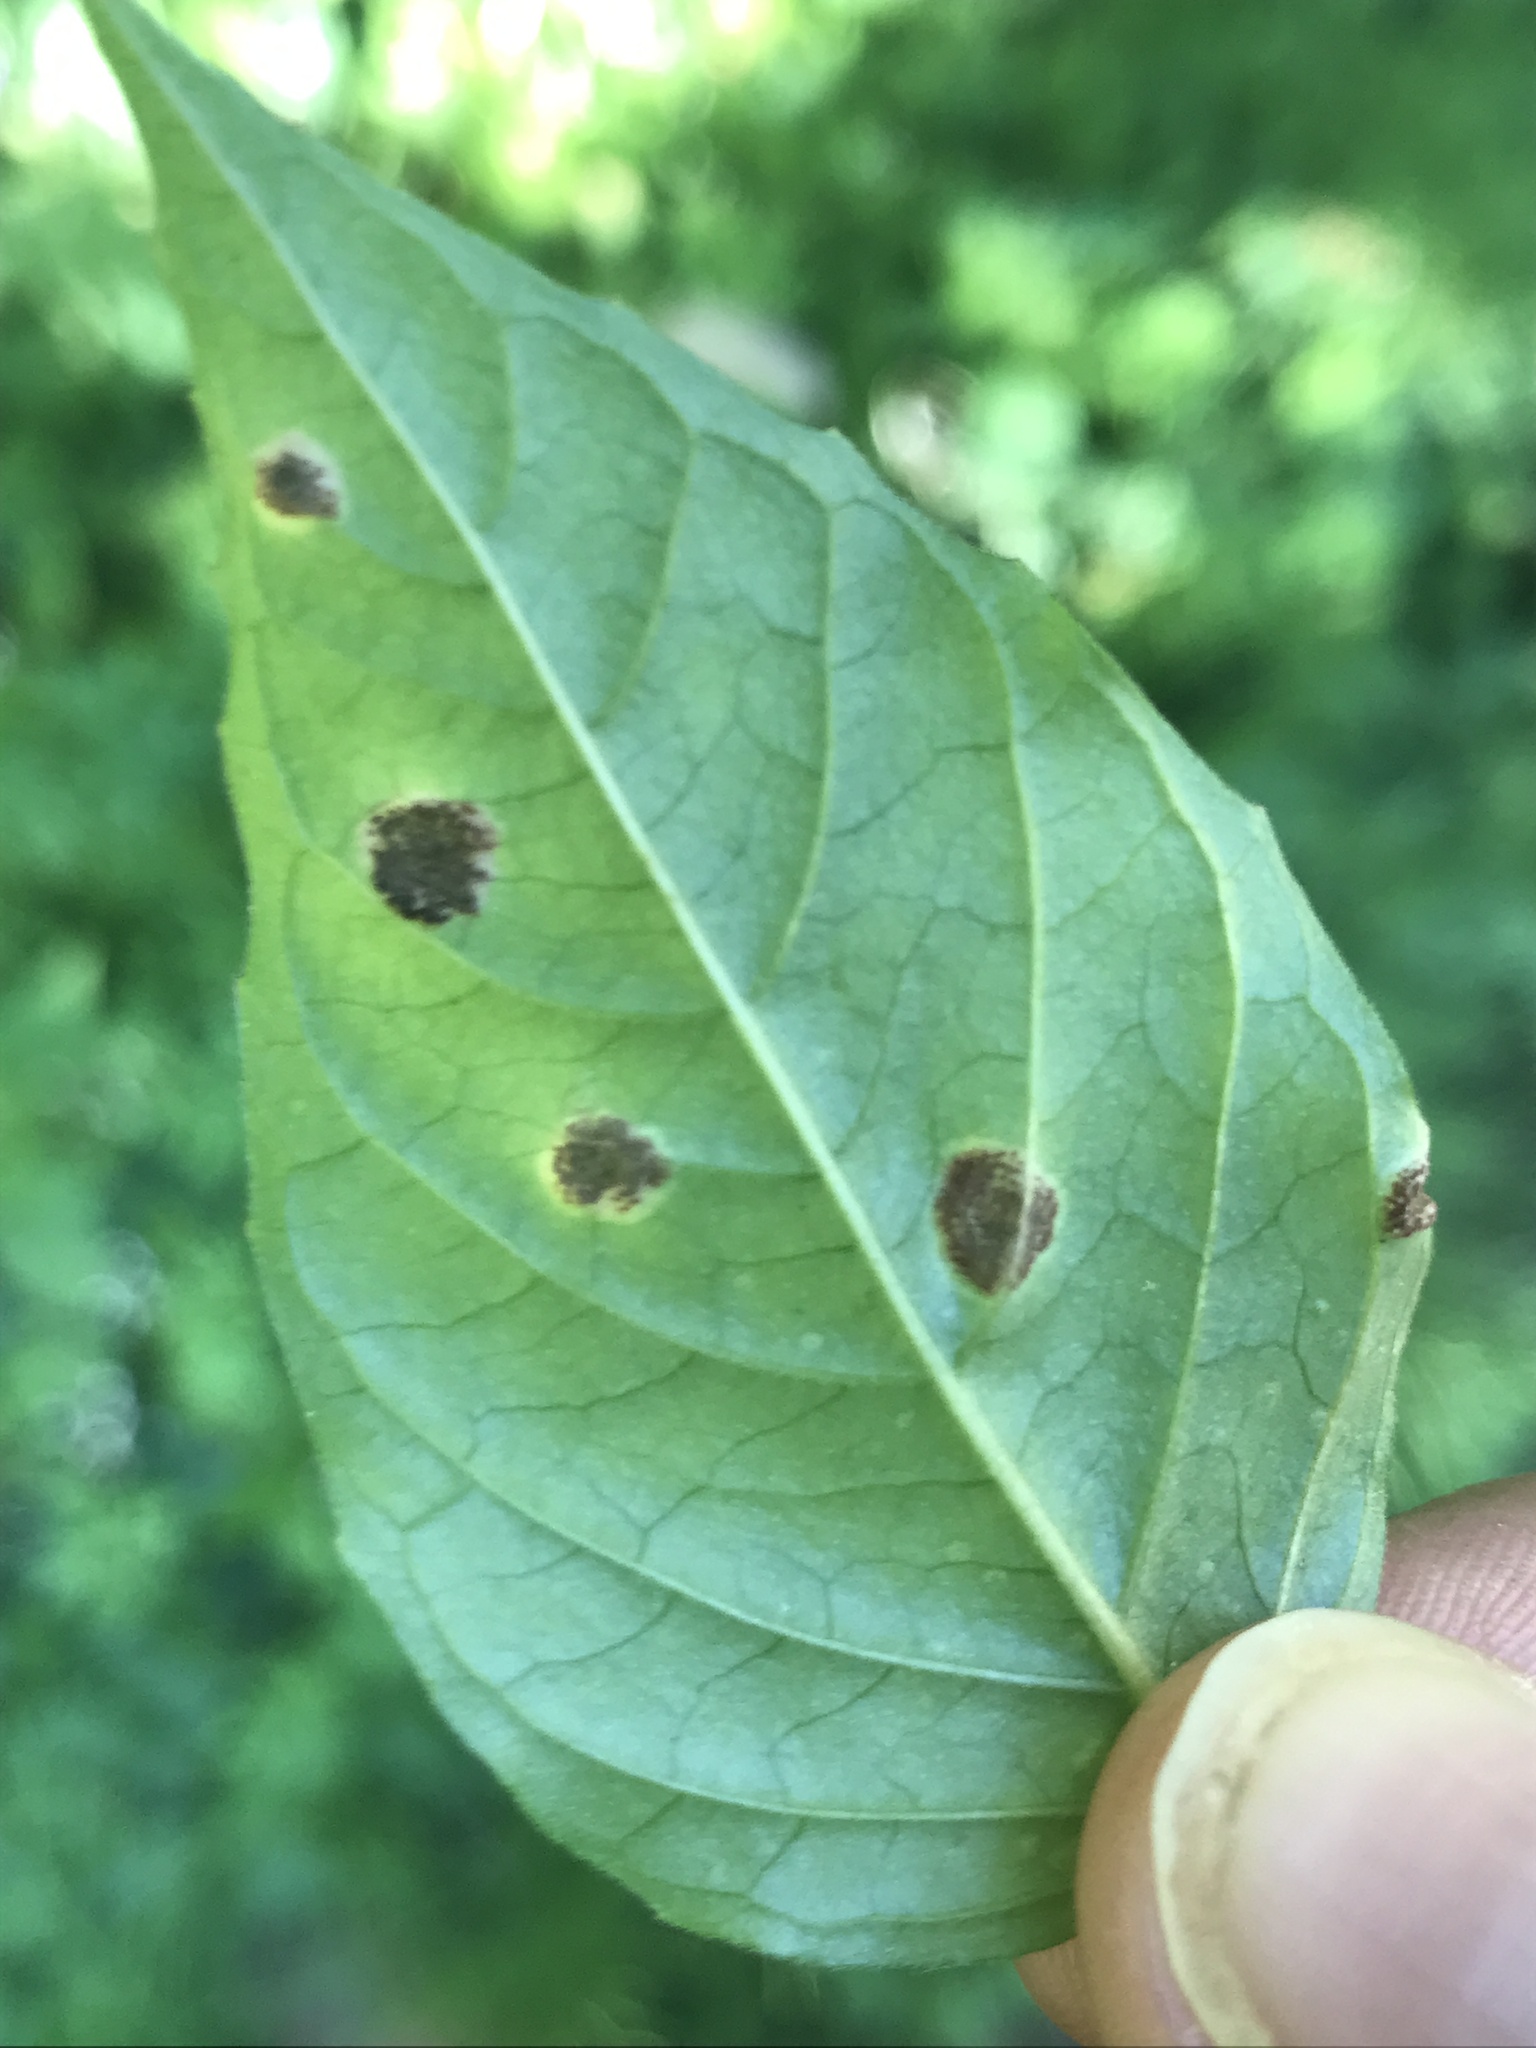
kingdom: Fungi
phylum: Basidiomycota
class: Pucciniomycetes
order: Pucciniales
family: Pucciniaceae
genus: Puccinia
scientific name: Puccinia circaeae
